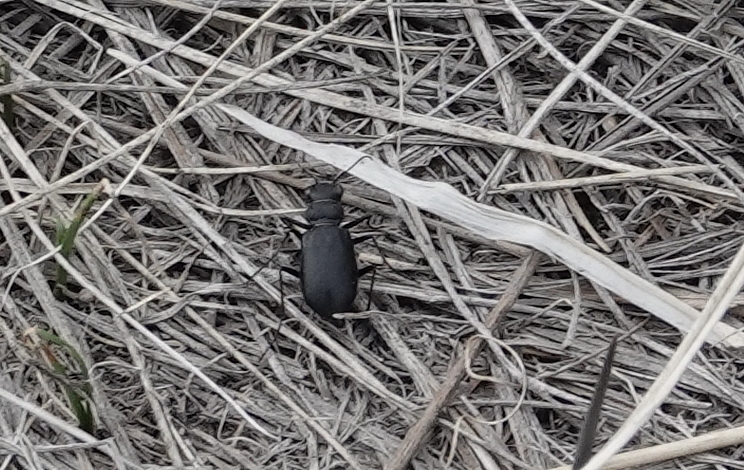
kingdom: Animalia
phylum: Arthropoda
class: Insecta
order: Coleoptera
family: Carabidae
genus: Cicindela
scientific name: Cicindela nebraskana
